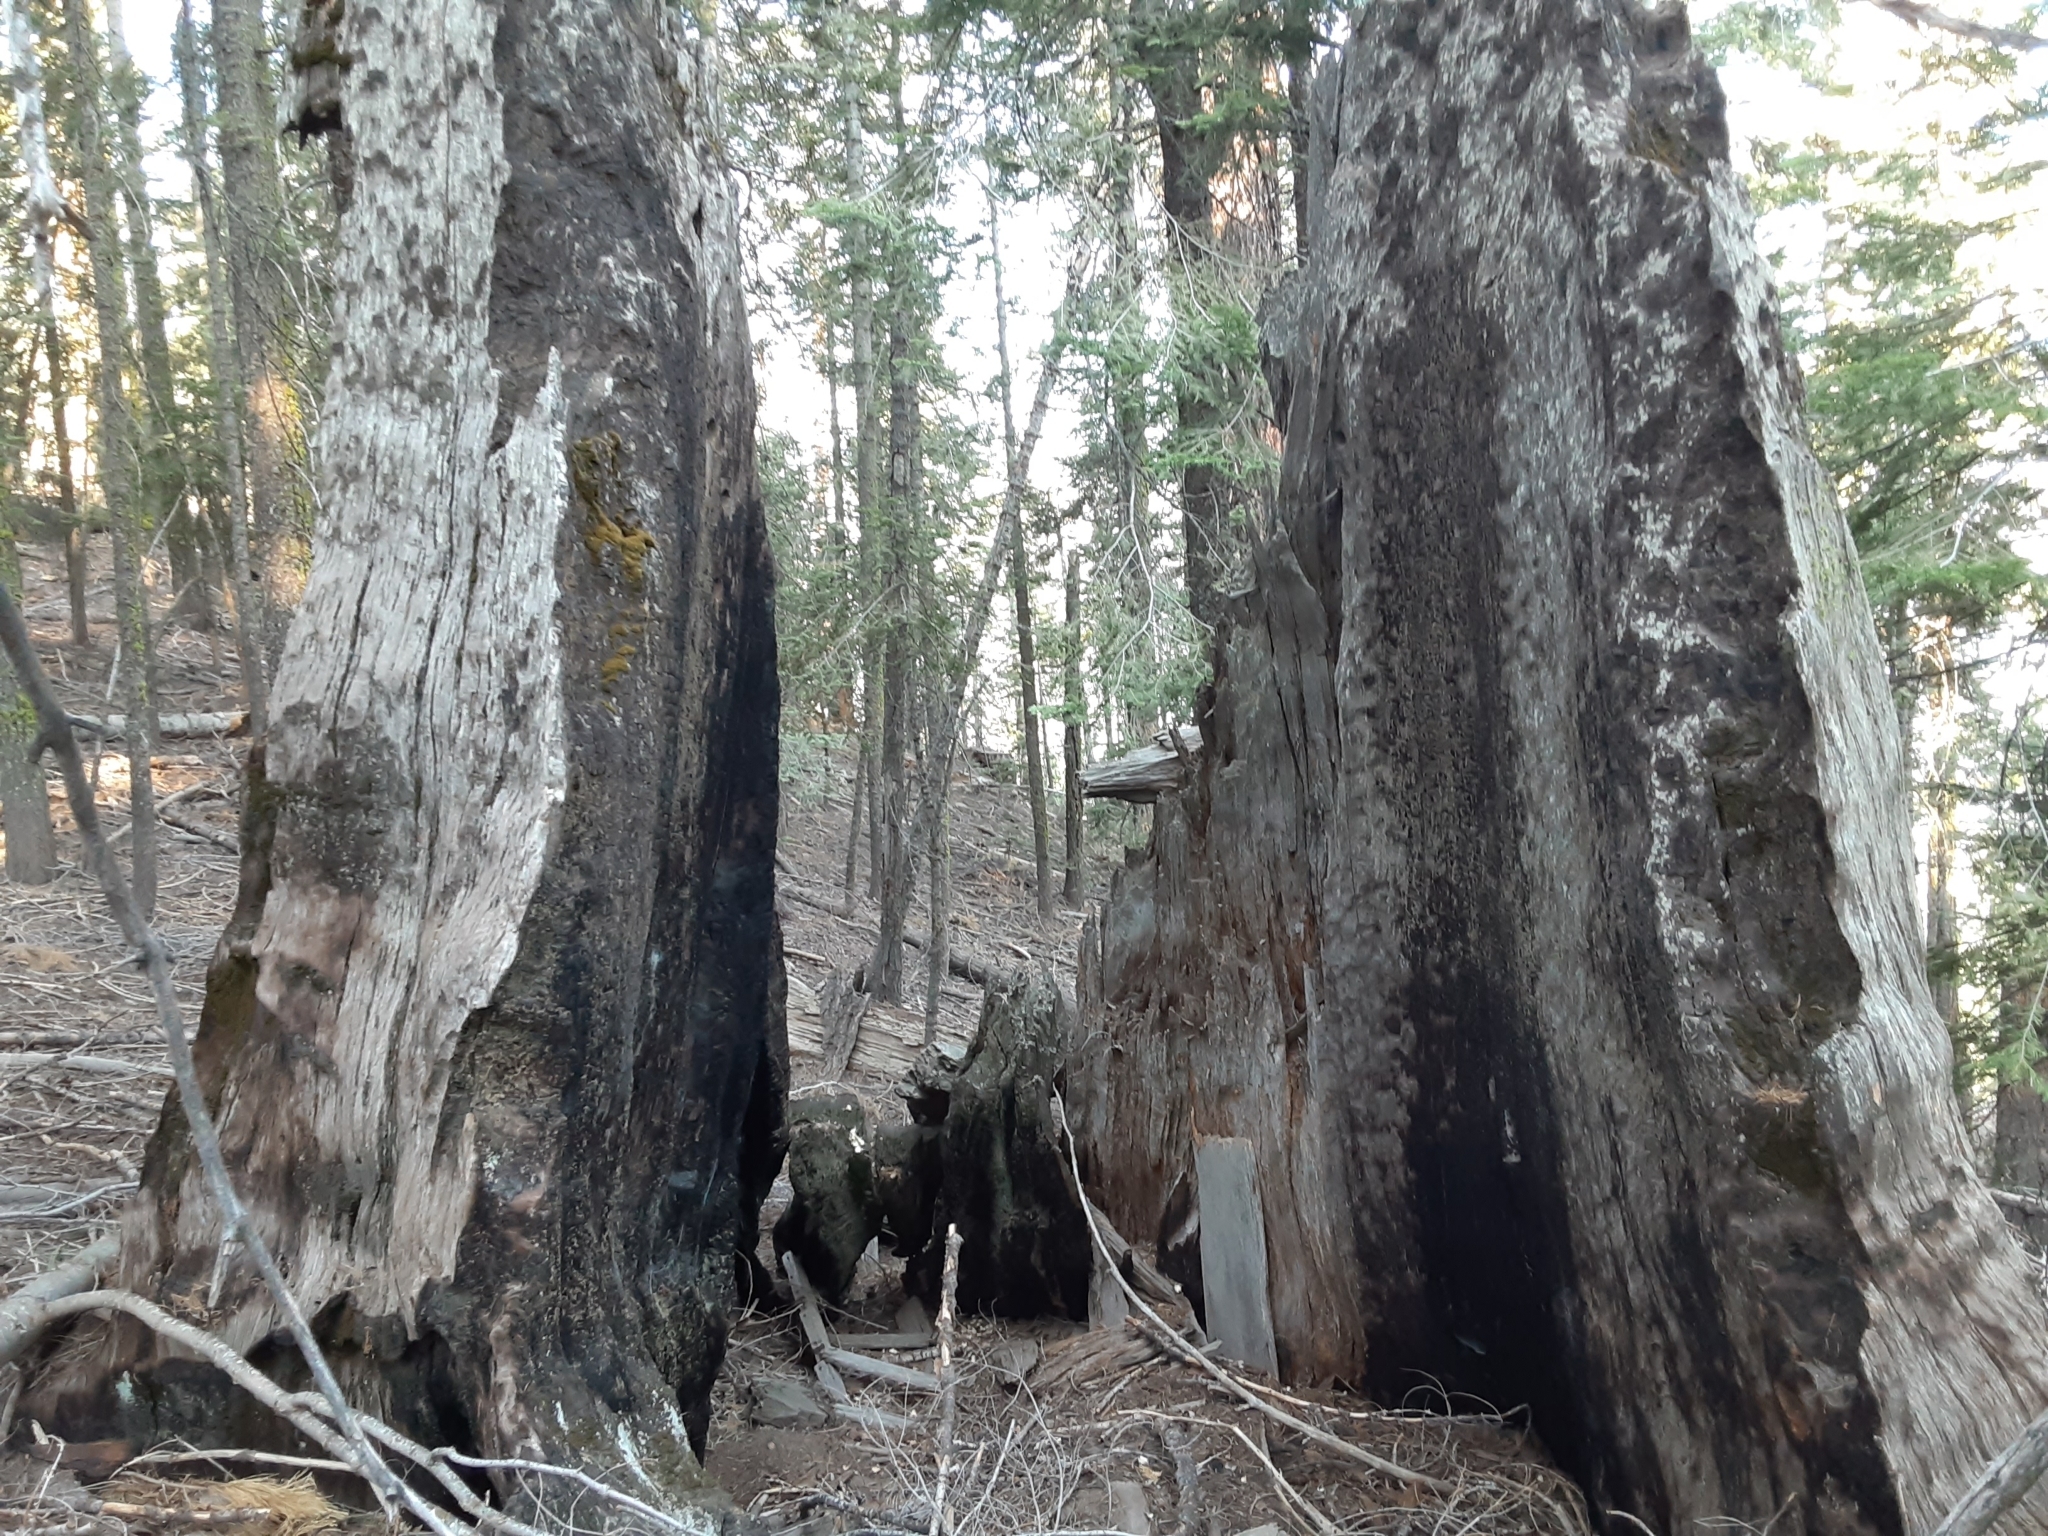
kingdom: Plantae
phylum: Tracheophyta
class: Pinopsida
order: Pinales
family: Cupressaceae
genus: Sequoiadendron
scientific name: Sequoiadendron giganteum
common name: Wellingtonia
